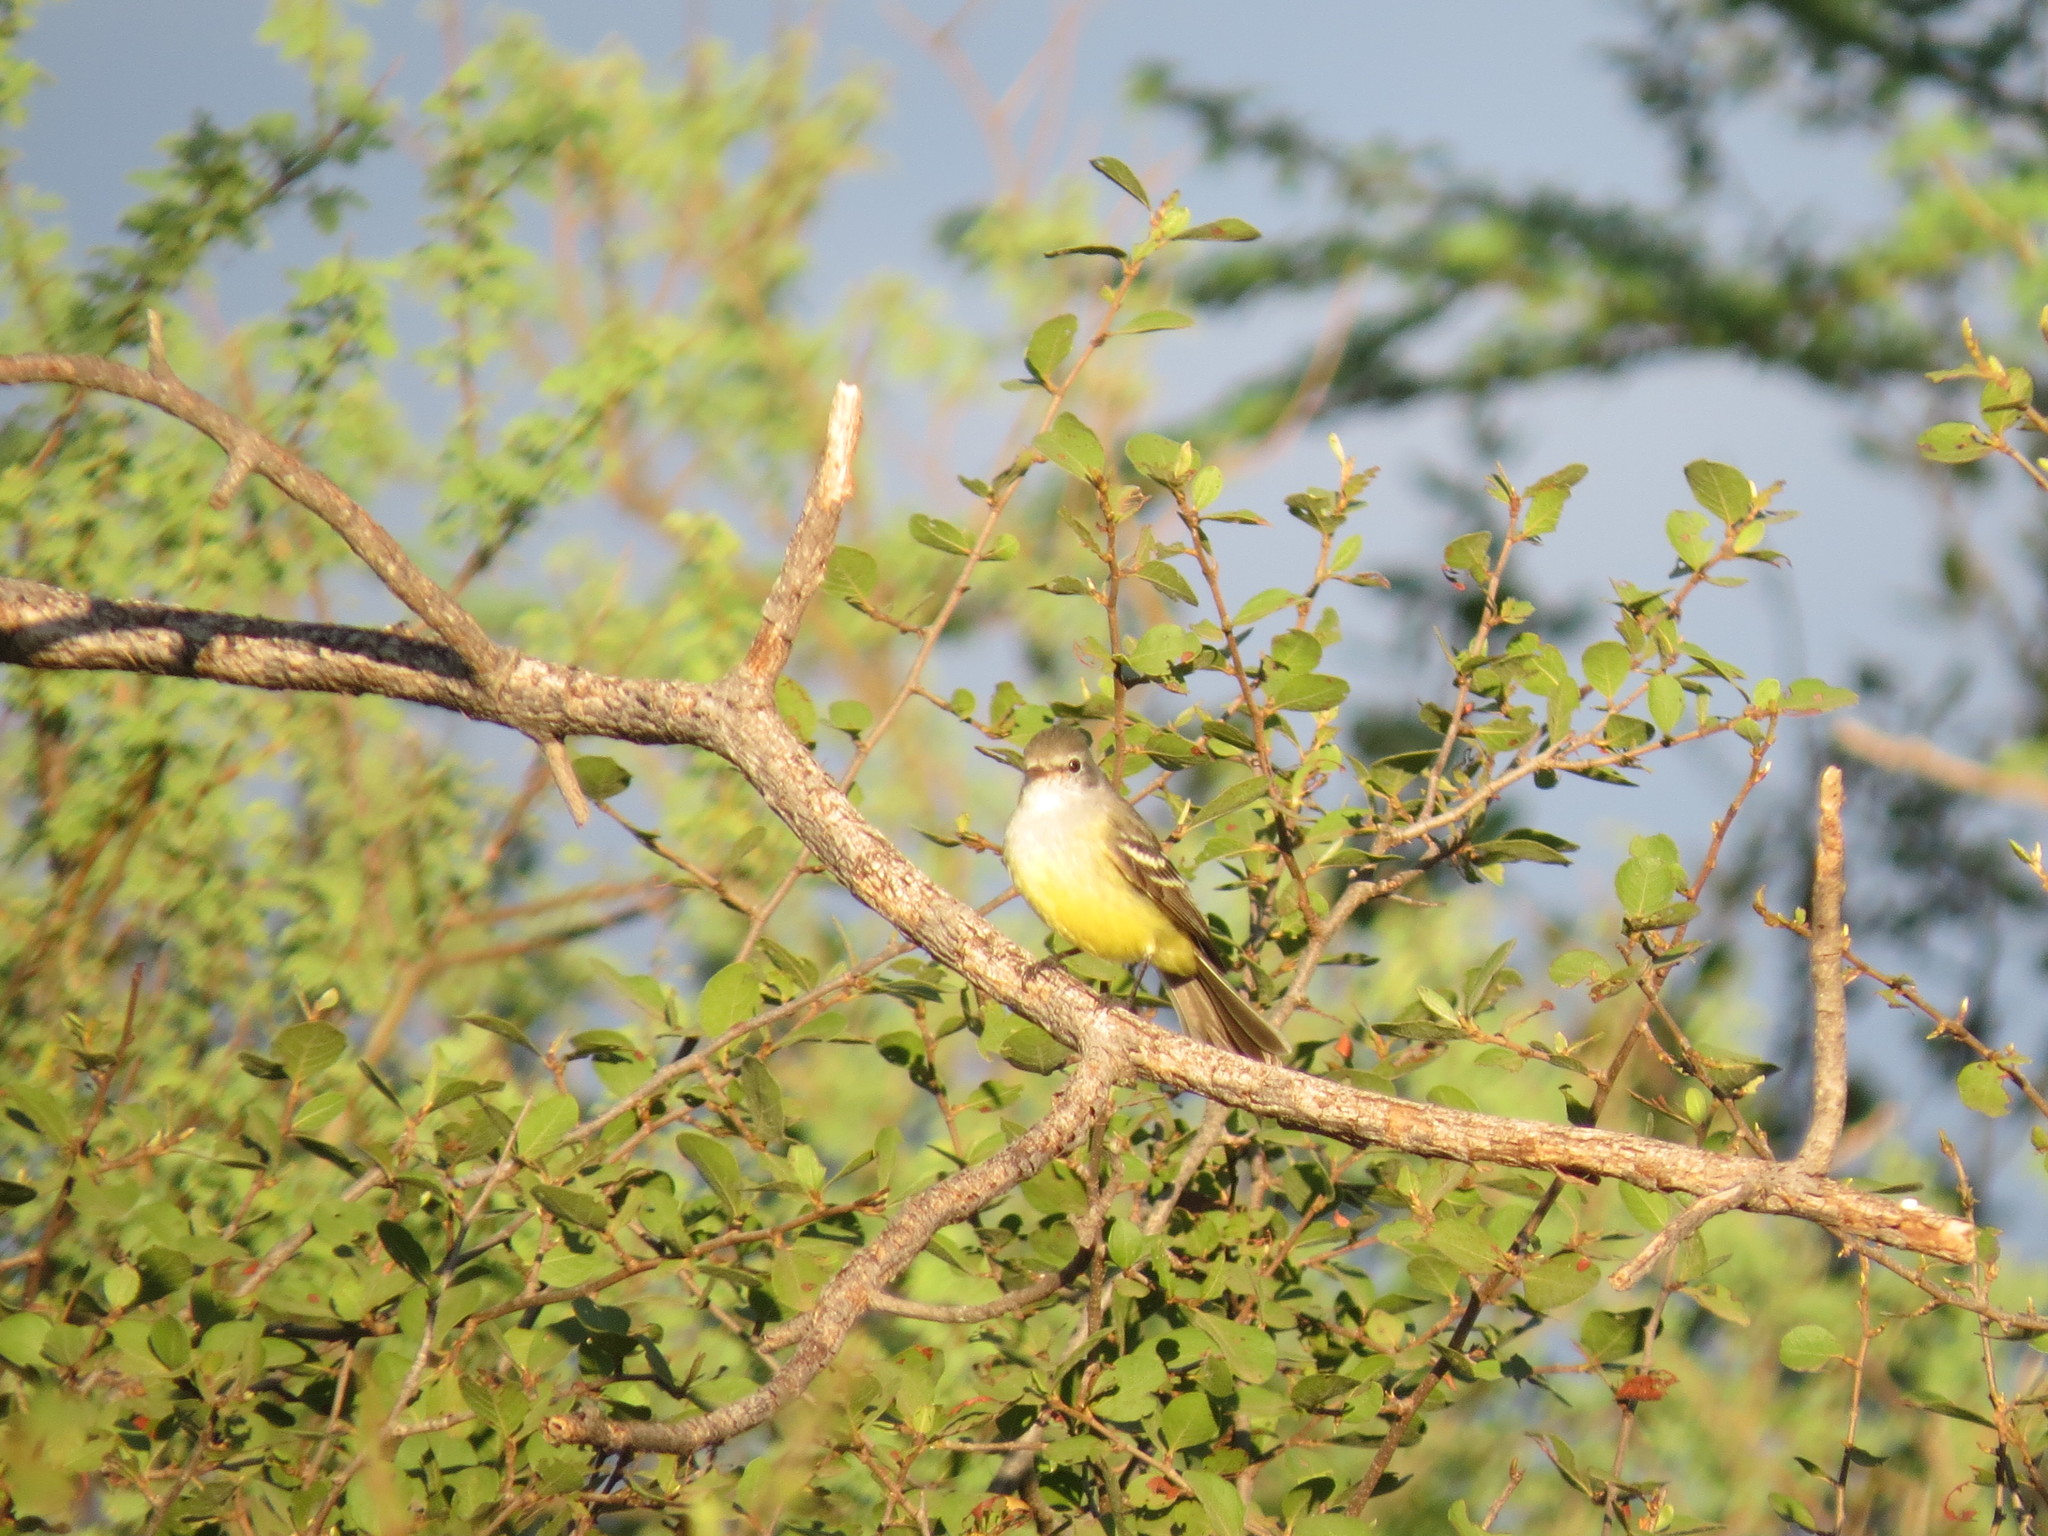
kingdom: Animalia
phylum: Chordata
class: Aves
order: Passeriformes
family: Tyrannidae
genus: Sublegatus
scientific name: Sublegatus modestus
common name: Southern scrub flycatcher
